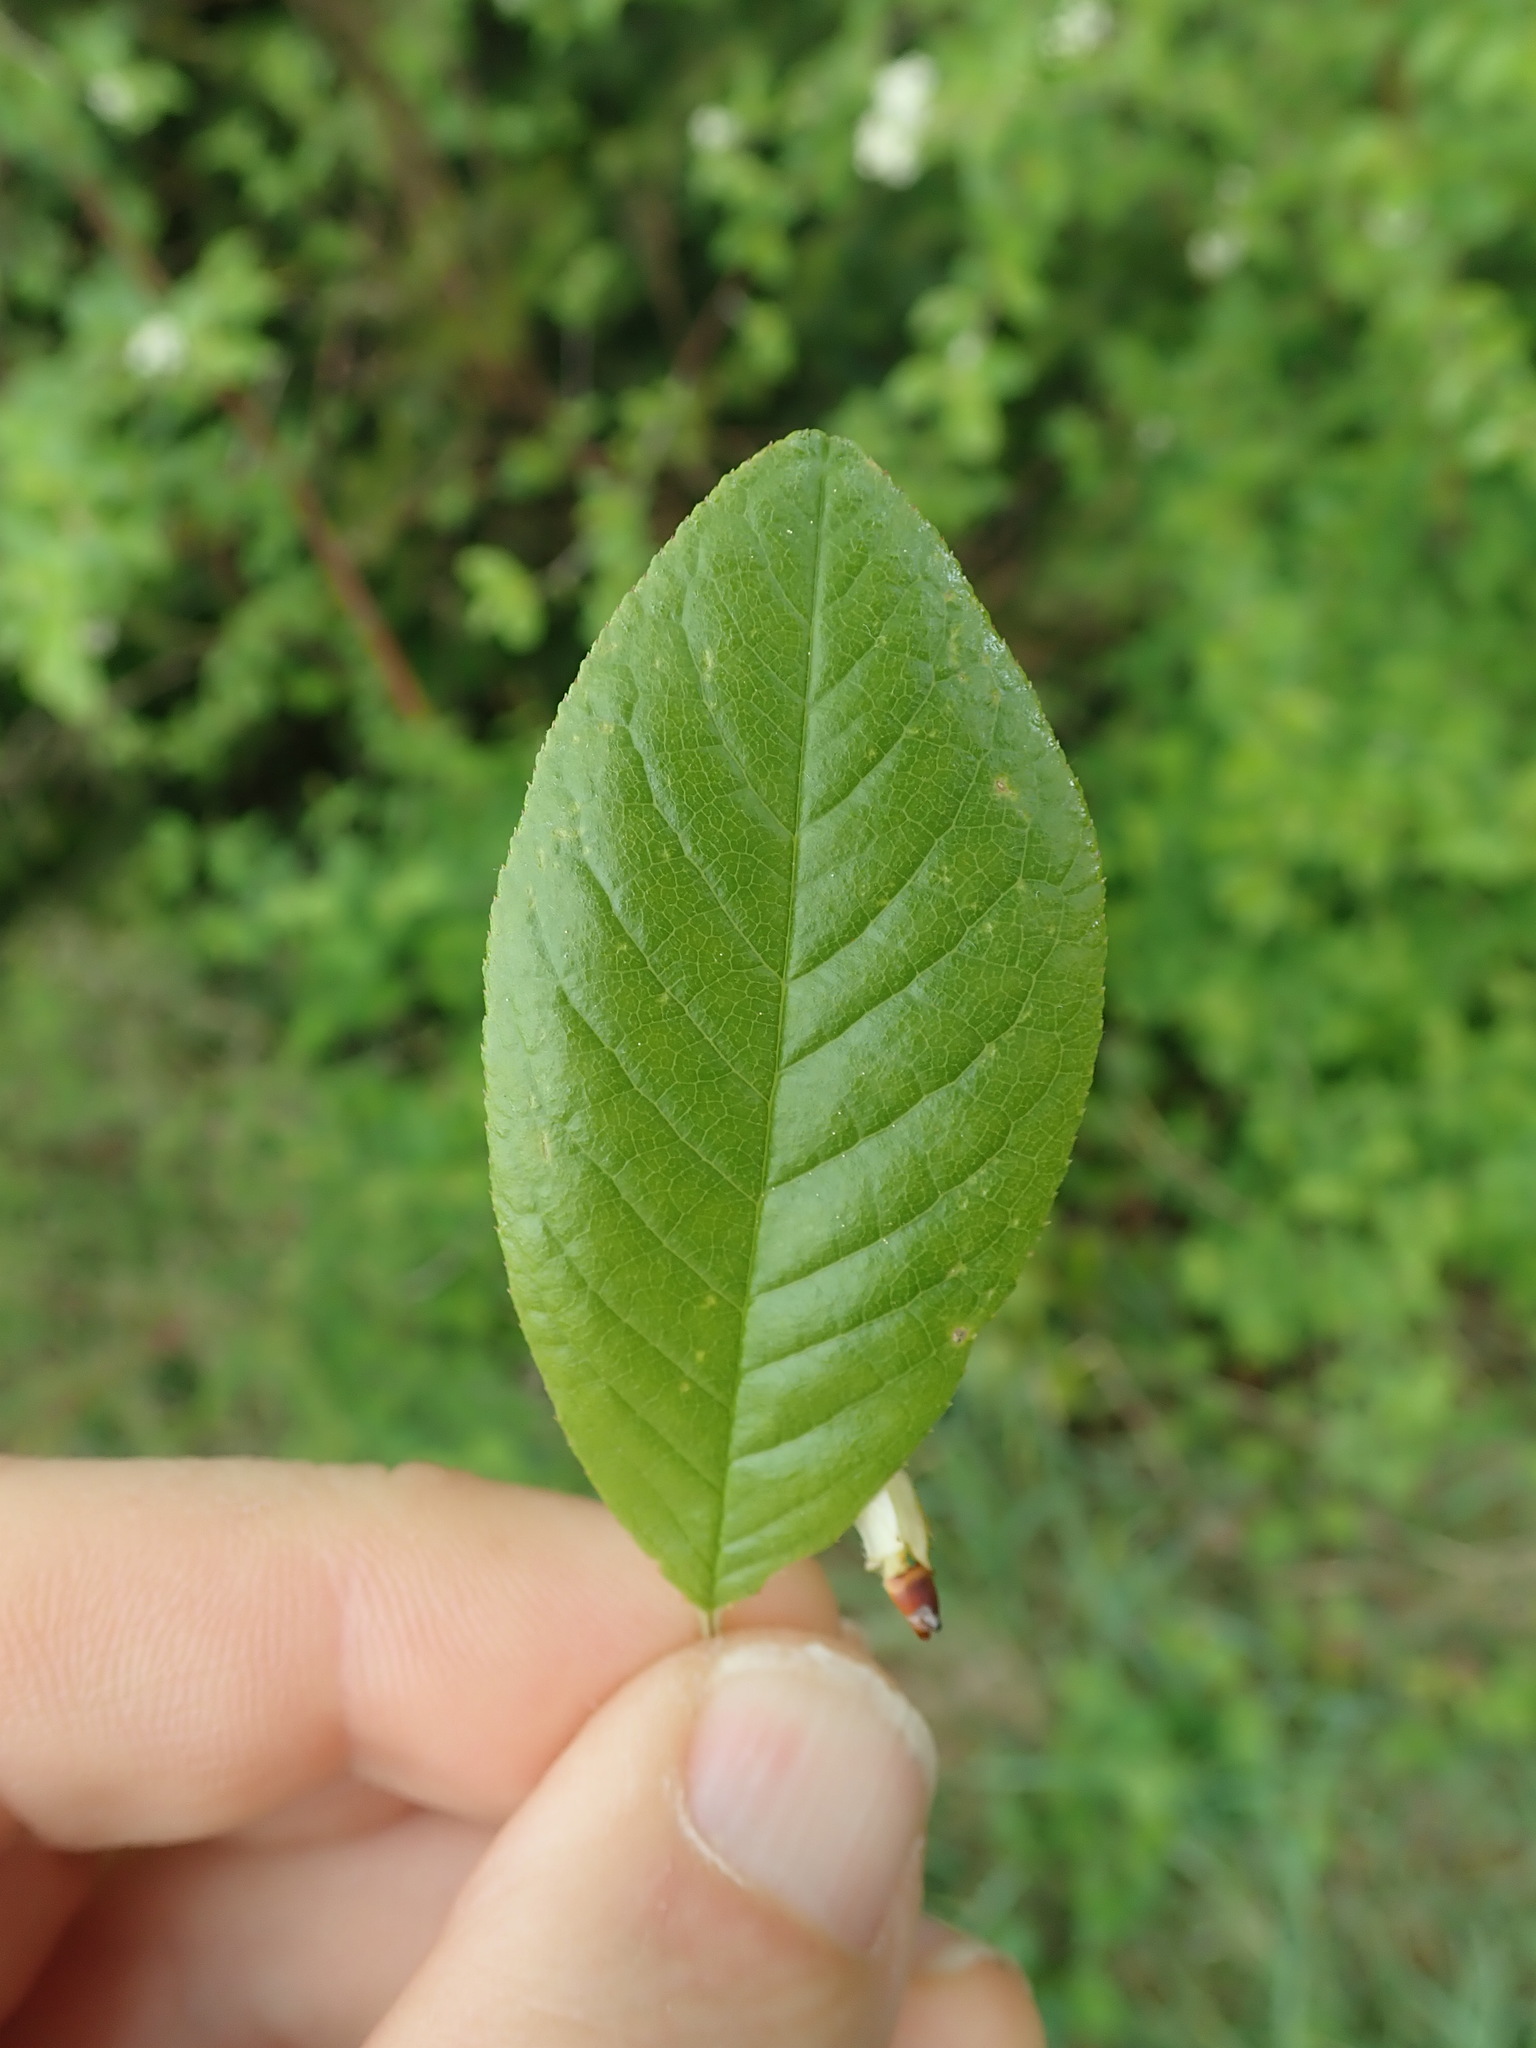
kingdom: Plantae
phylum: Tracheophyta
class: Magnoliopsida
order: Rosales
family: Rosaceae
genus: Prunus
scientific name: Prunus emarginata
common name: Bitter cherry
